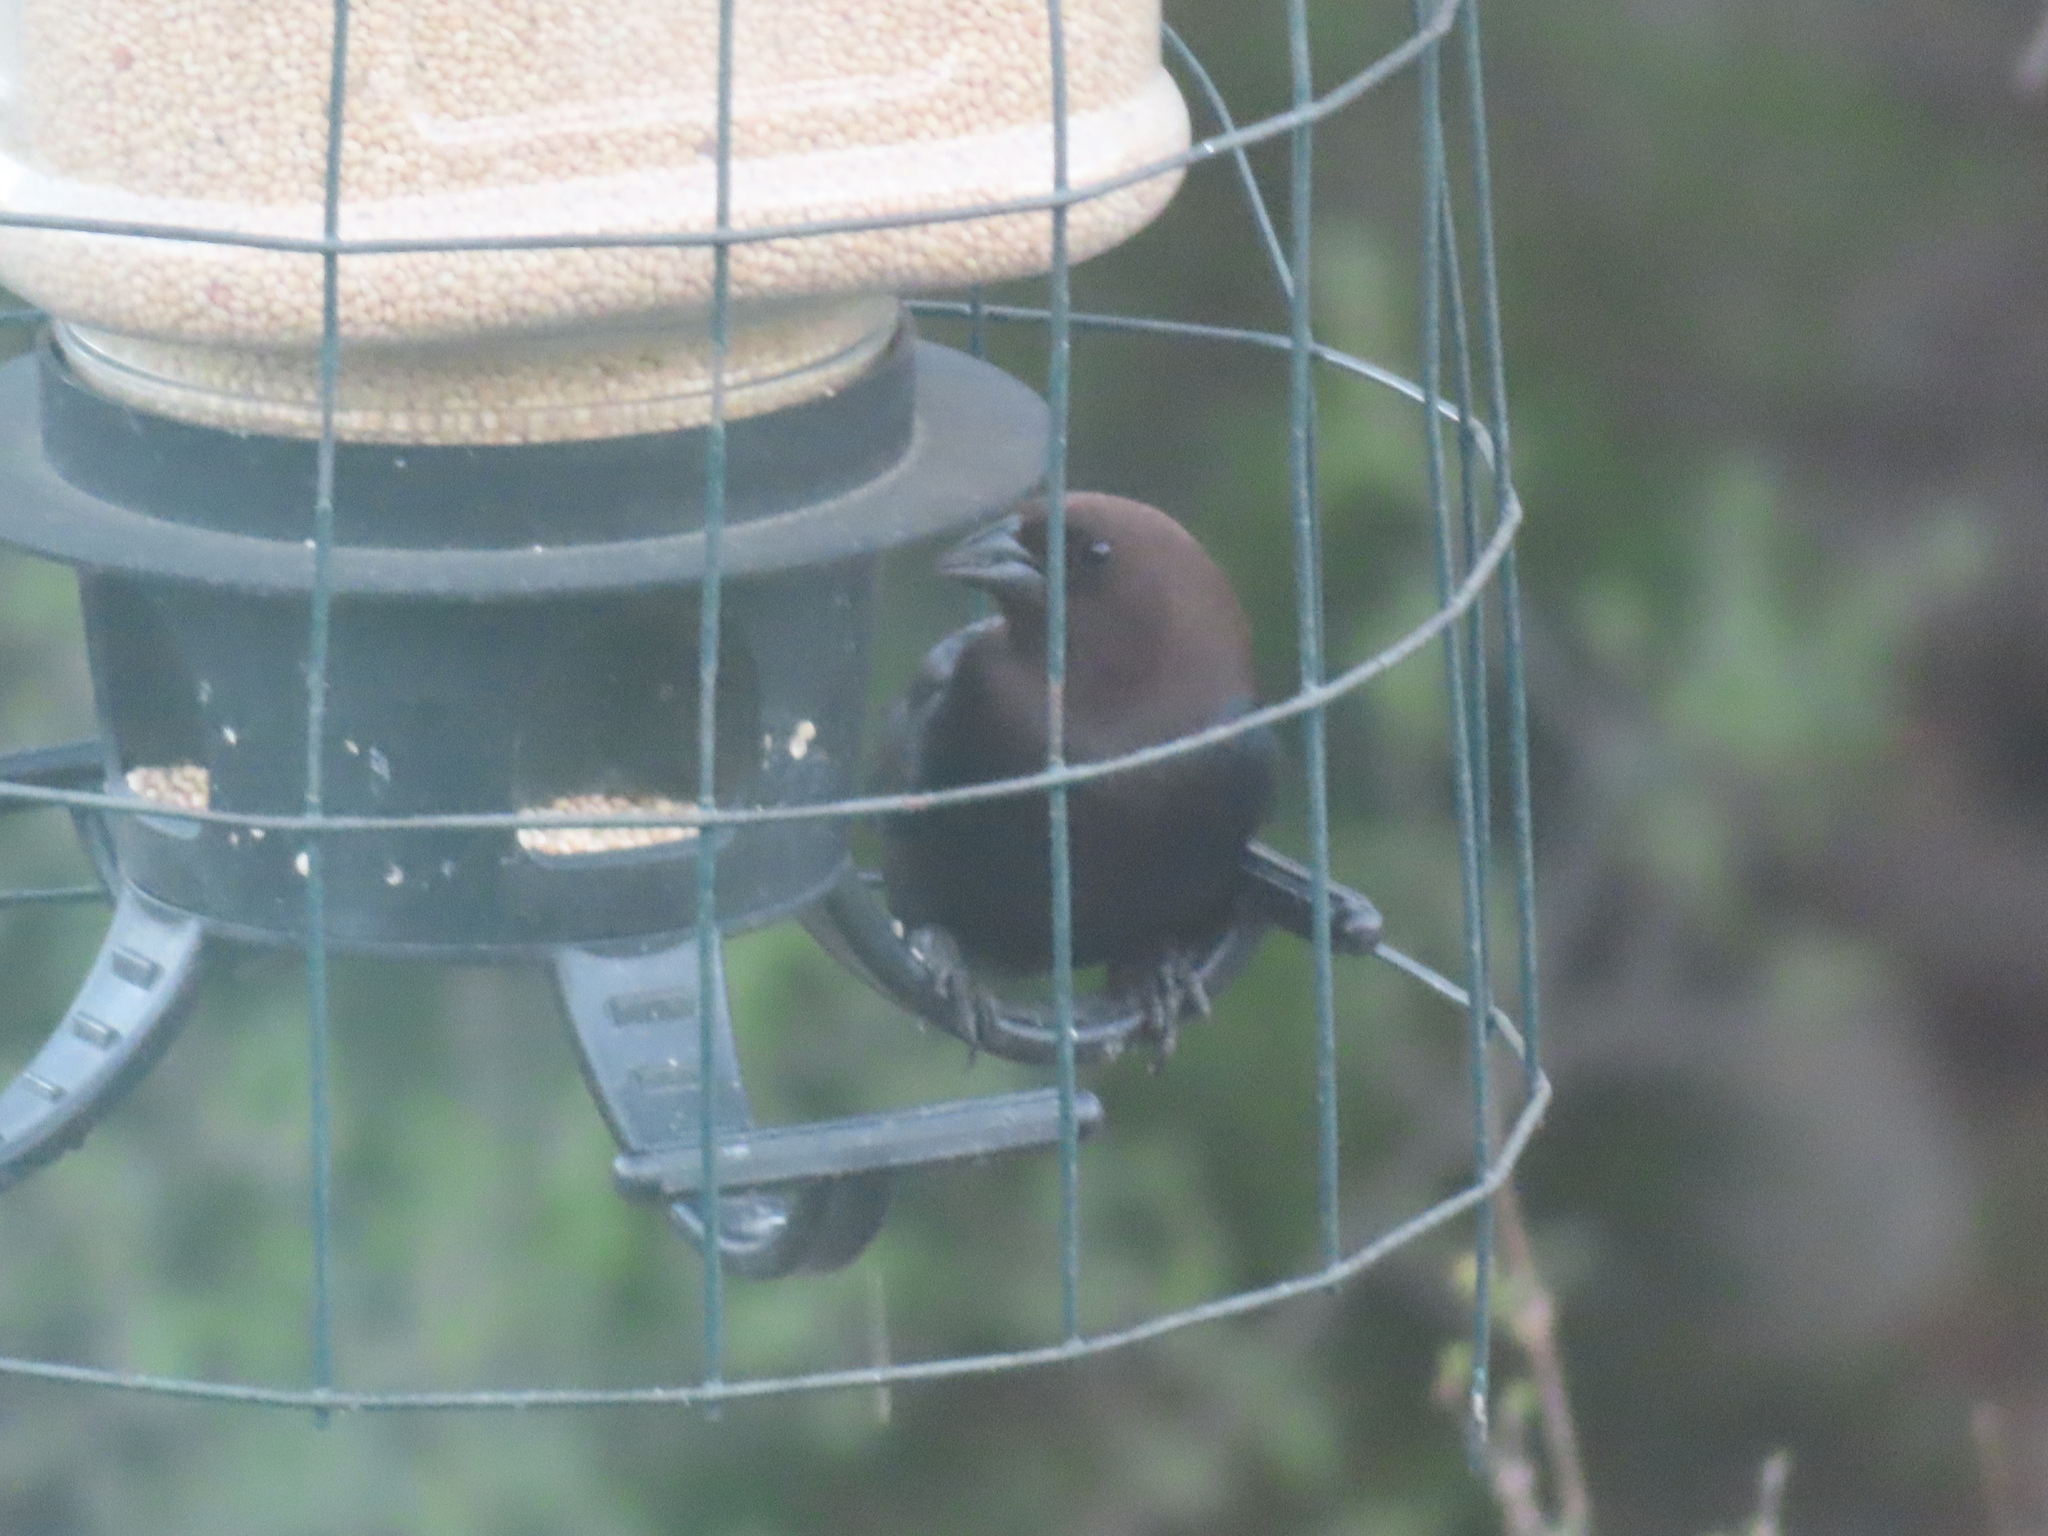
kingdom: Animalia
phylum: Chordata
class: Aves
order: Passeriformes
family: Icteridae
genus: Molothrus
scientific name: Molothrus ater
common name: Brown-headed cowbird
